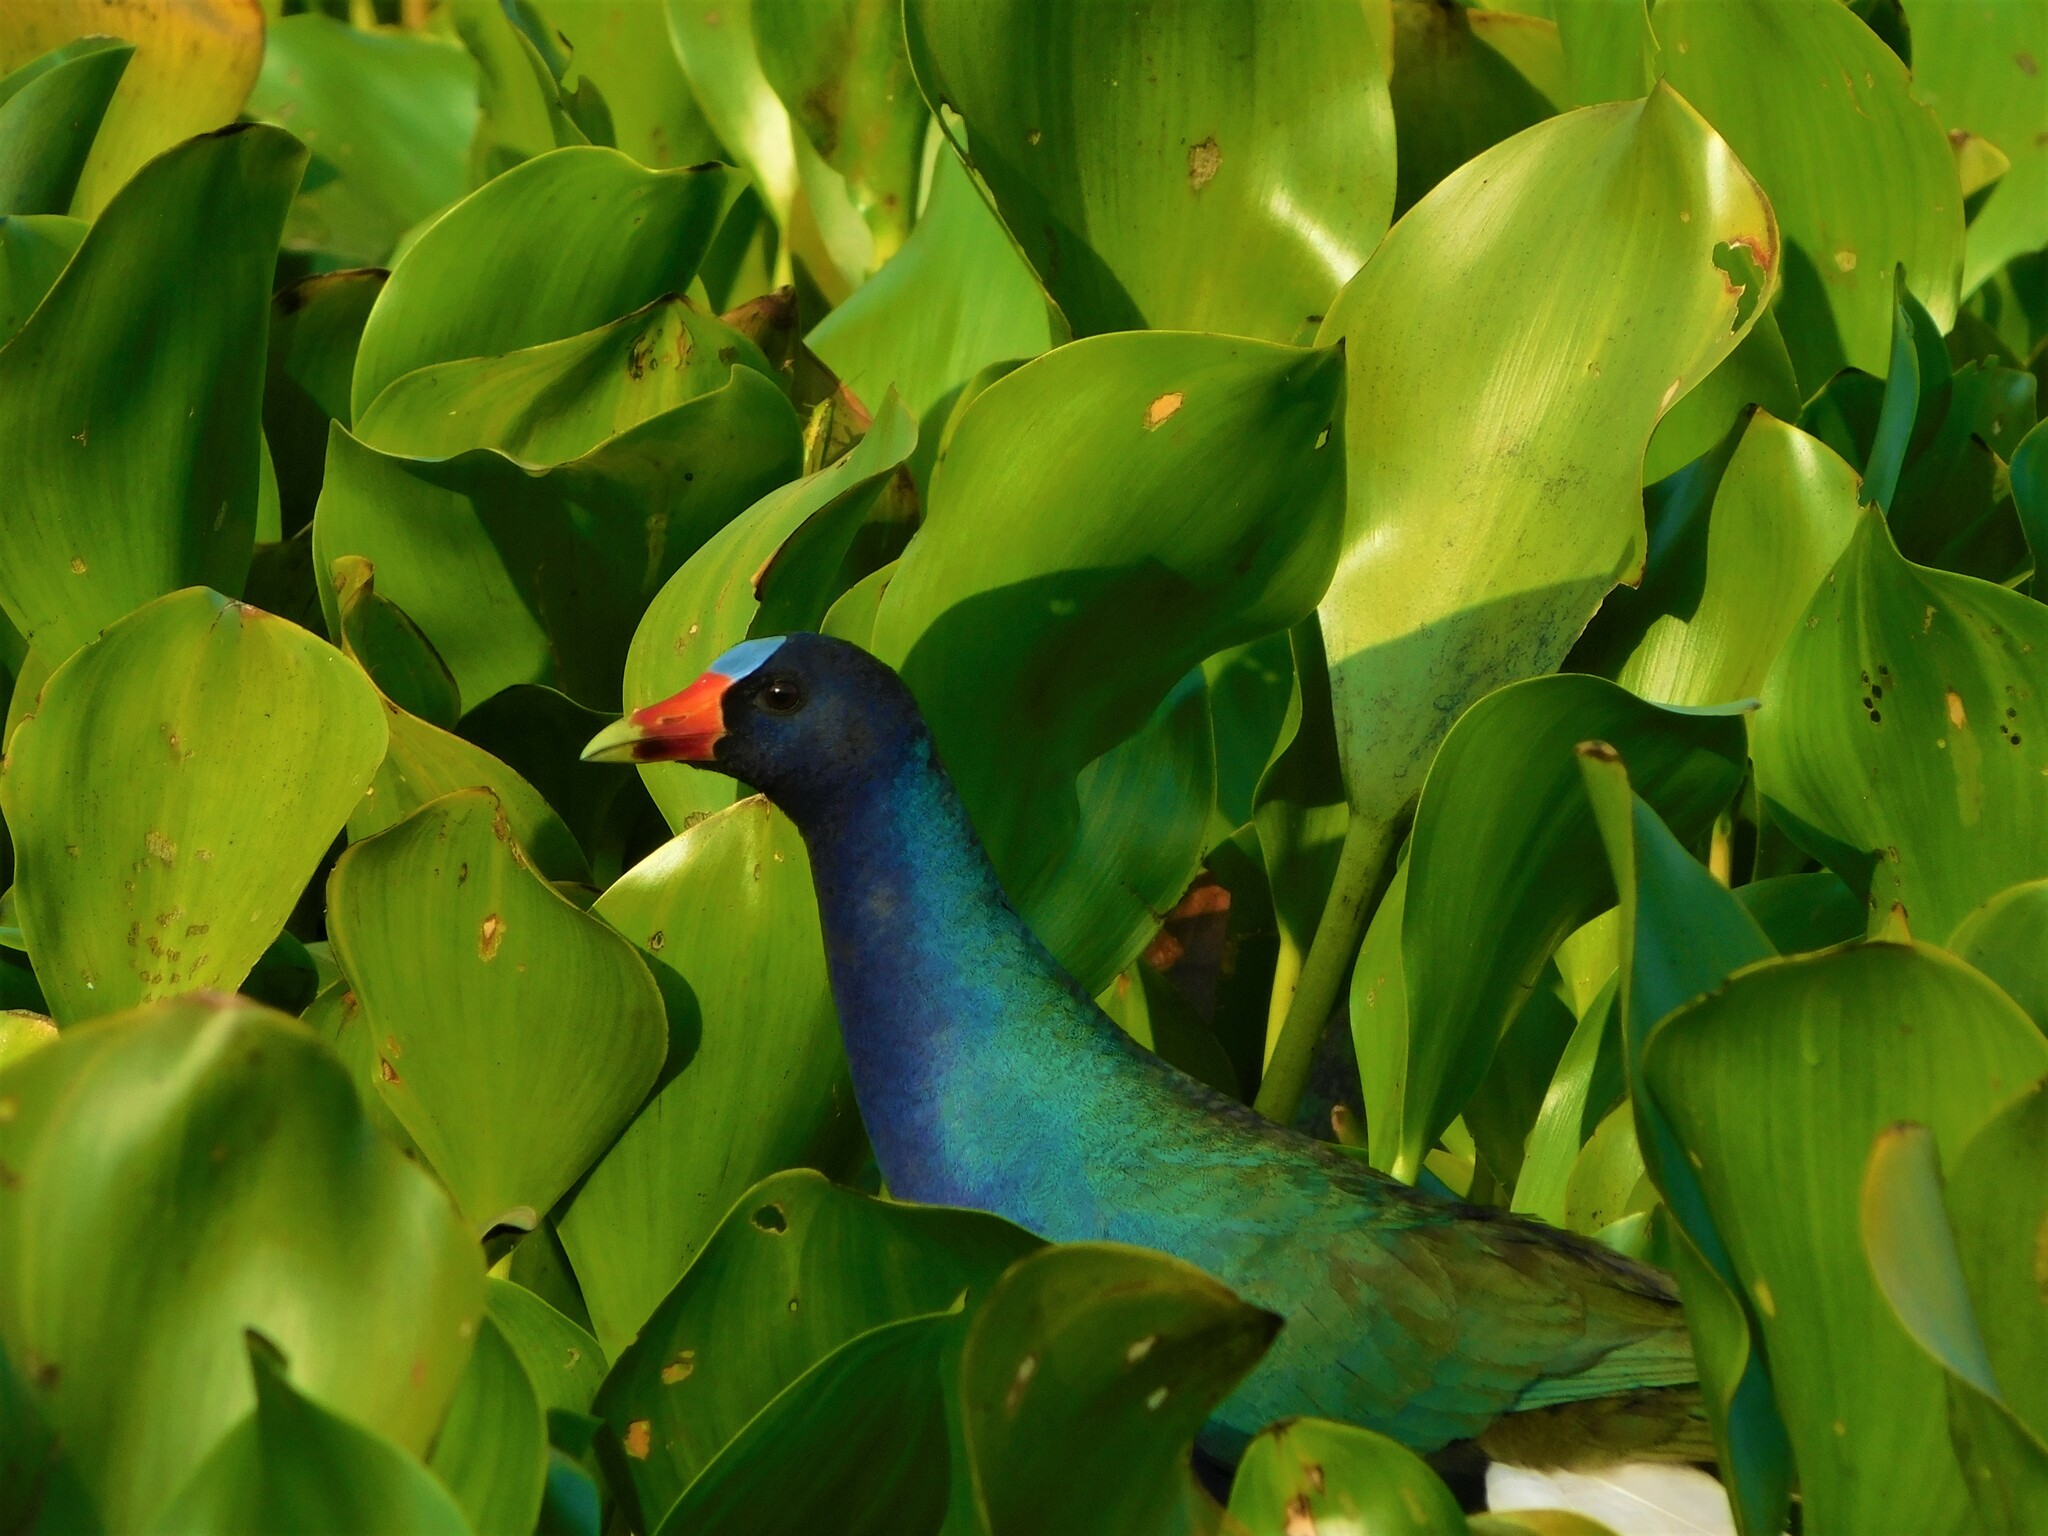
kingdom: Animalia
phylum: Chordata
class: Aves
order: Gruiformes
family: Rallidae
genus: Porphyrio
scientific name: Porphyrio martinica
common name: Purple gallinule
